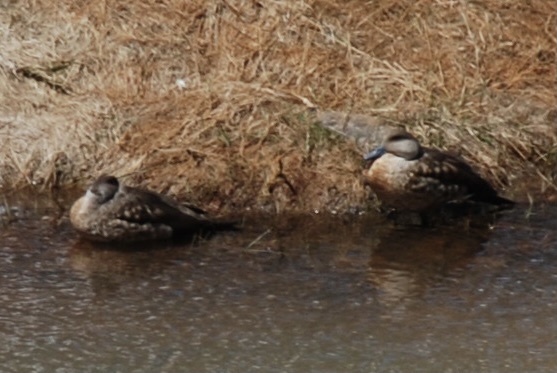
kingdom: Animalia
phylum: Chordata
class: Aves
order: Anseriformes
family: Anatidae
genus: Lophonetta
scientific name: Lophonetta specularioides
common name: Crested duck
